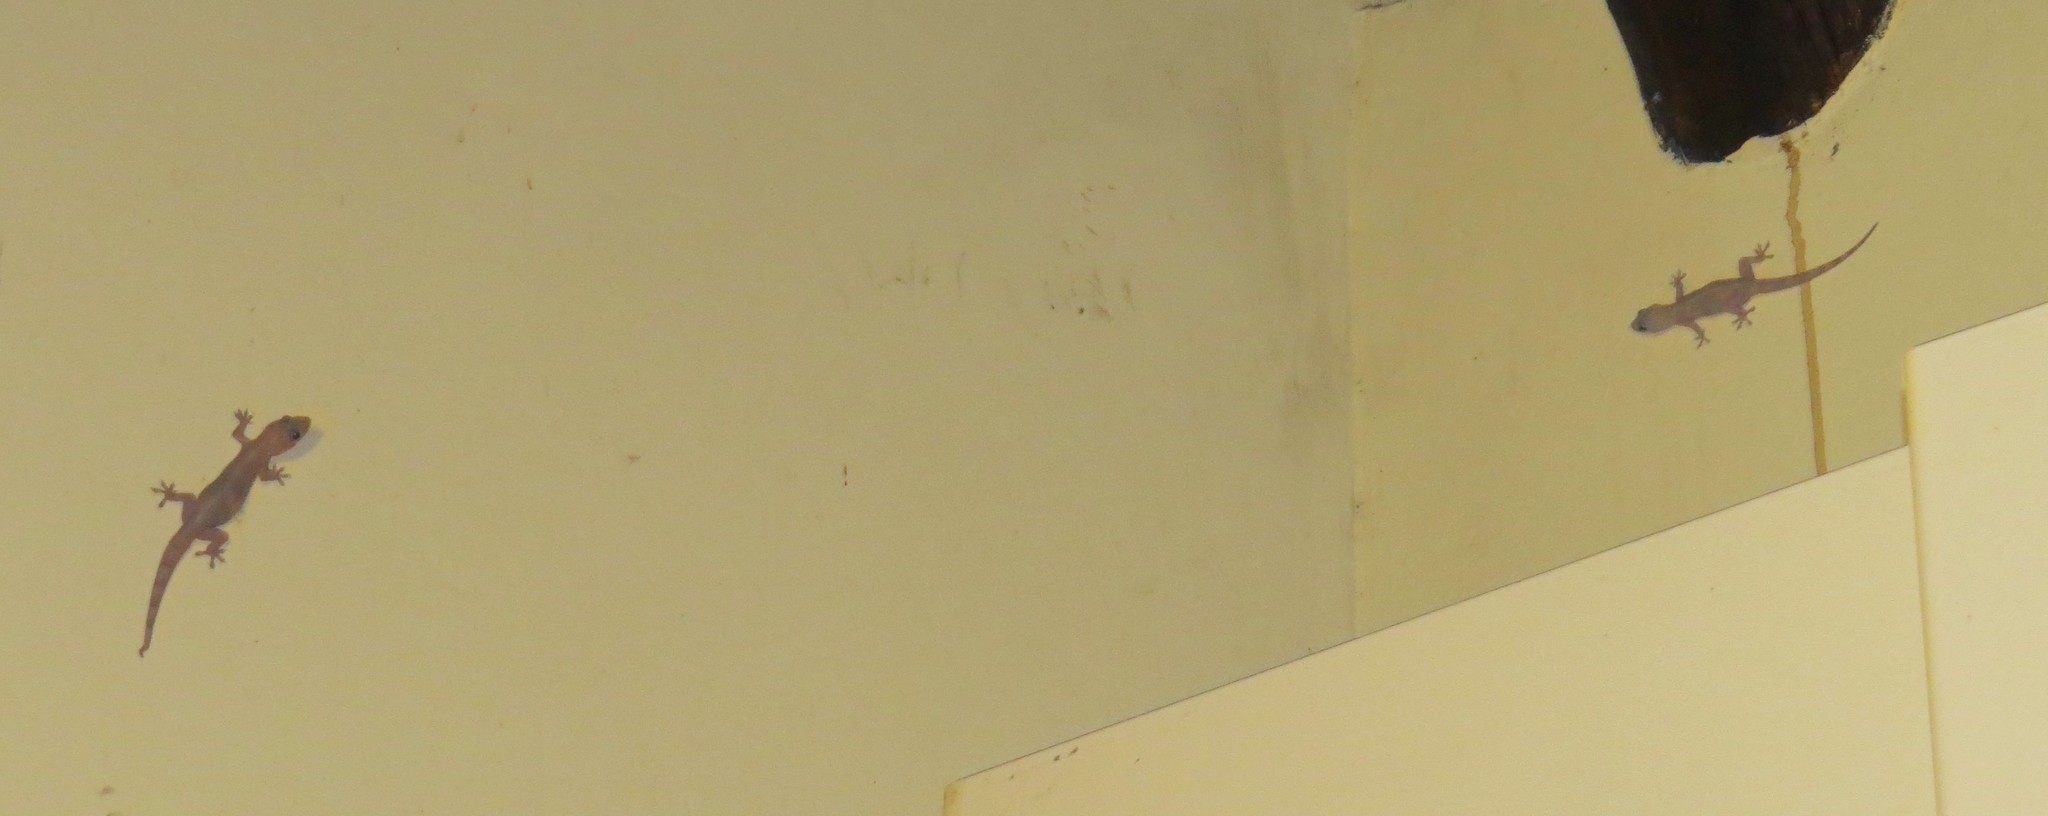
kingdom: Animalia
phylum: Chordata
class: Squamata
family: Gekkonidae
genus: Hemidactylus
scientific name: Hemidactylus mabouia
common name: House gecko
